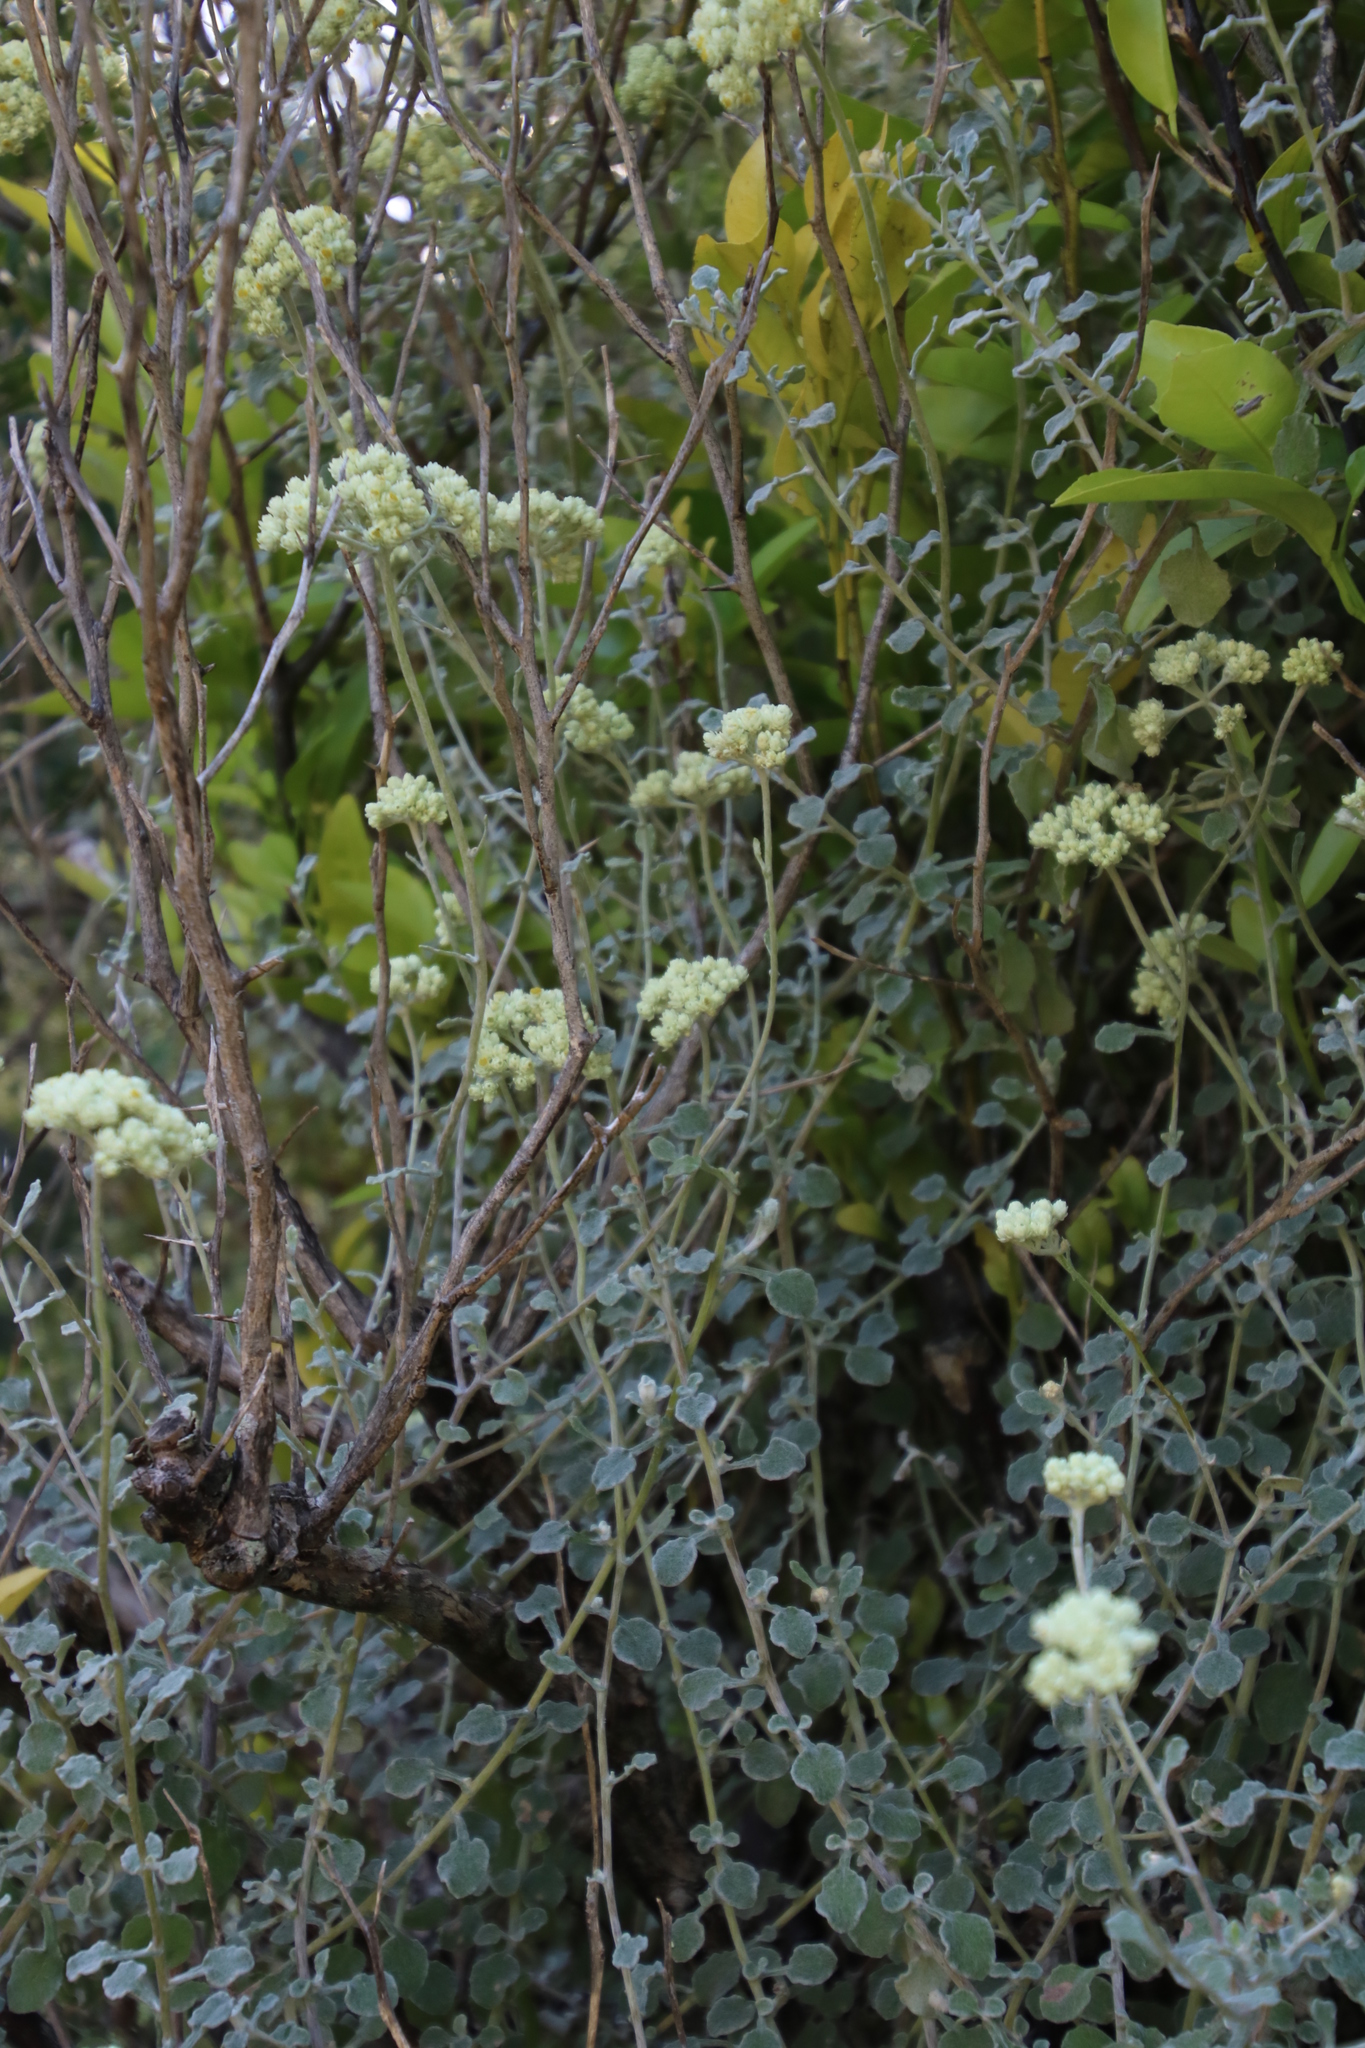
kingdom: Plantae
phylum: Tracheophyta
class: Magnoliopsida
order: Asterales
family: Asteraceae
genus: Helichrysum
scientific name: Helichrysum pandurifolium
